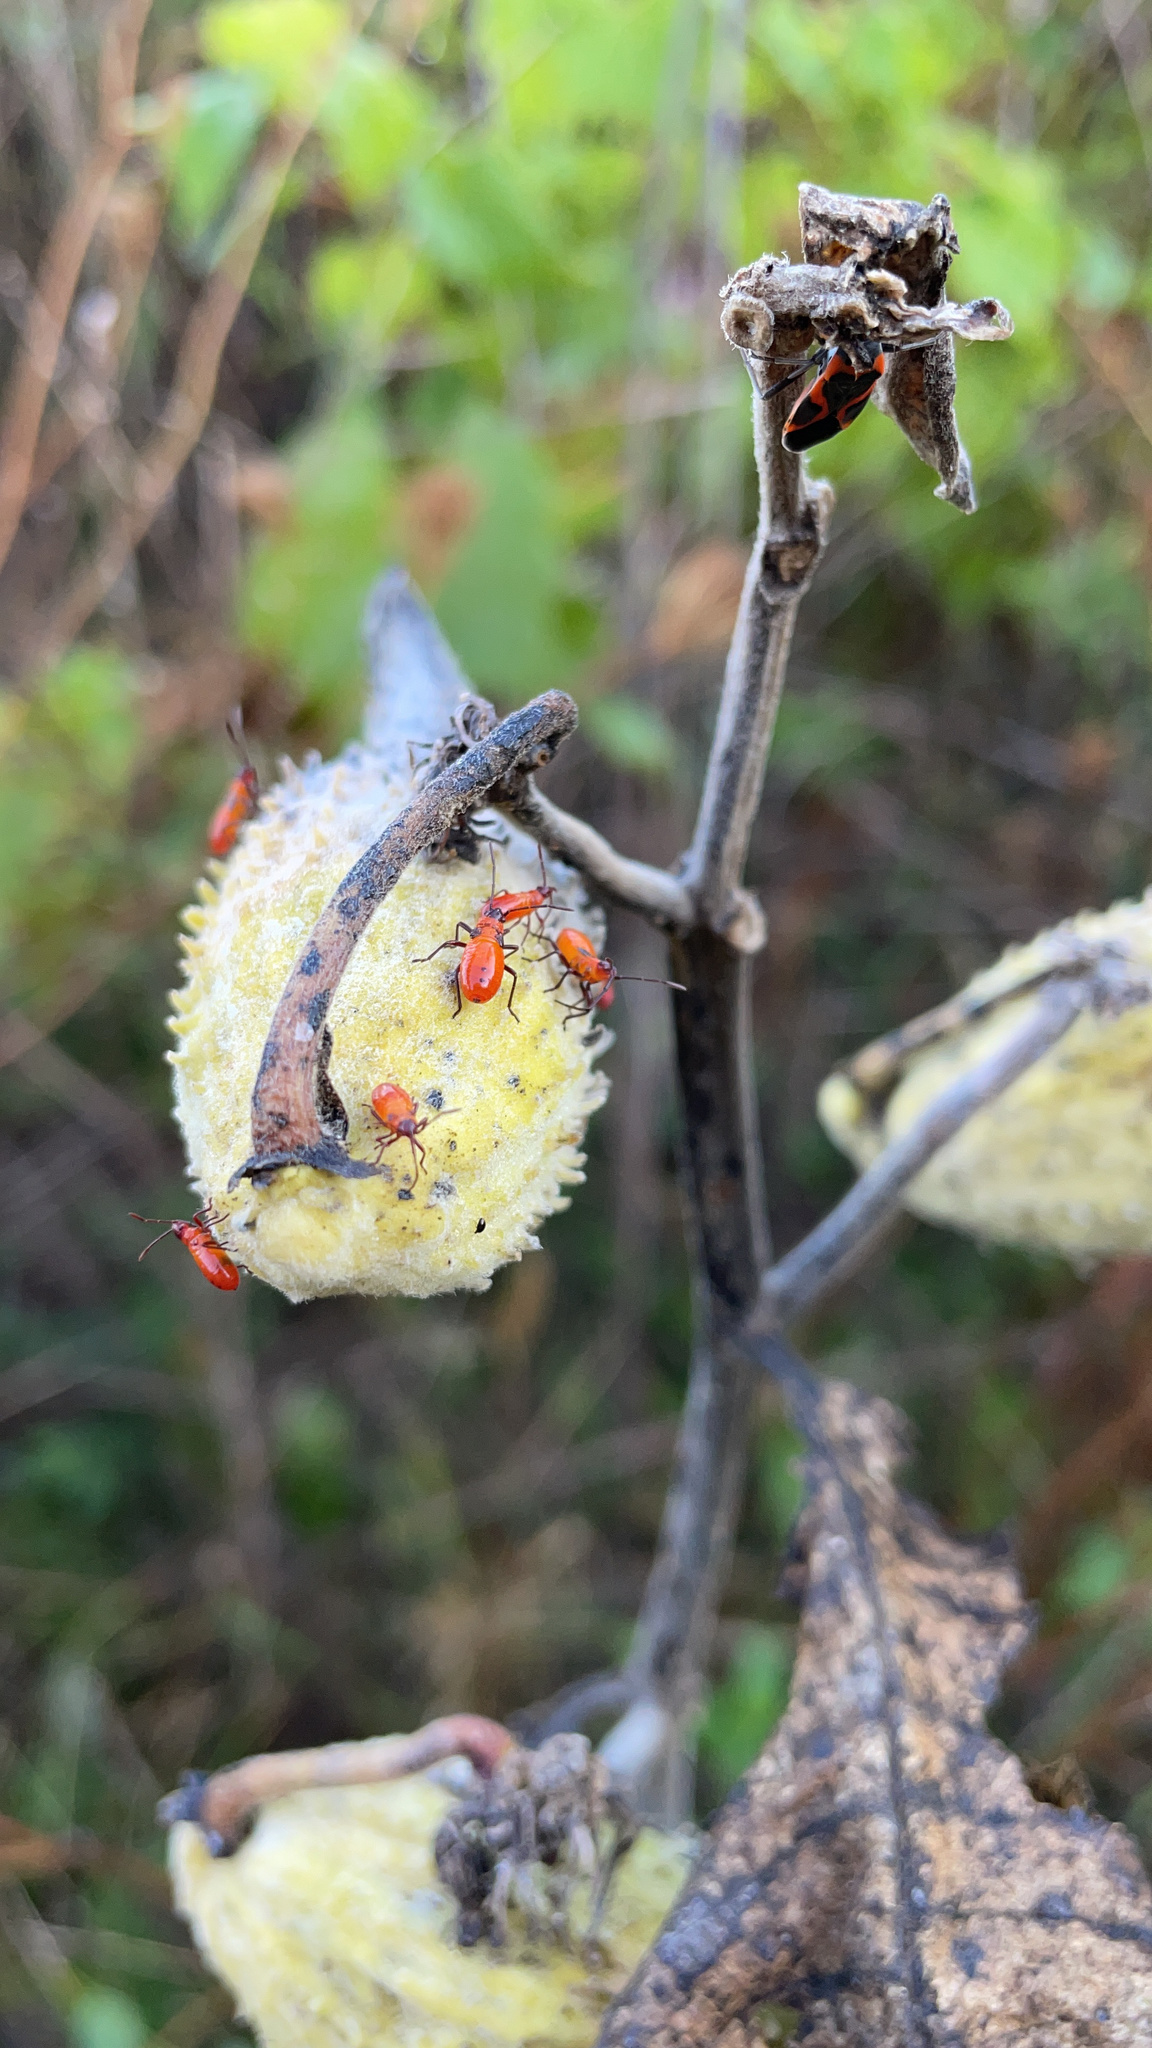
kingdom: Animalia
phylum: Arthropoda
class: Insecta
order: Hemiptera
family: Lygaeidae
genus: Oncopeltus
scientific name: Oncopeltus fasciatus
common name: Large milkweed bug
